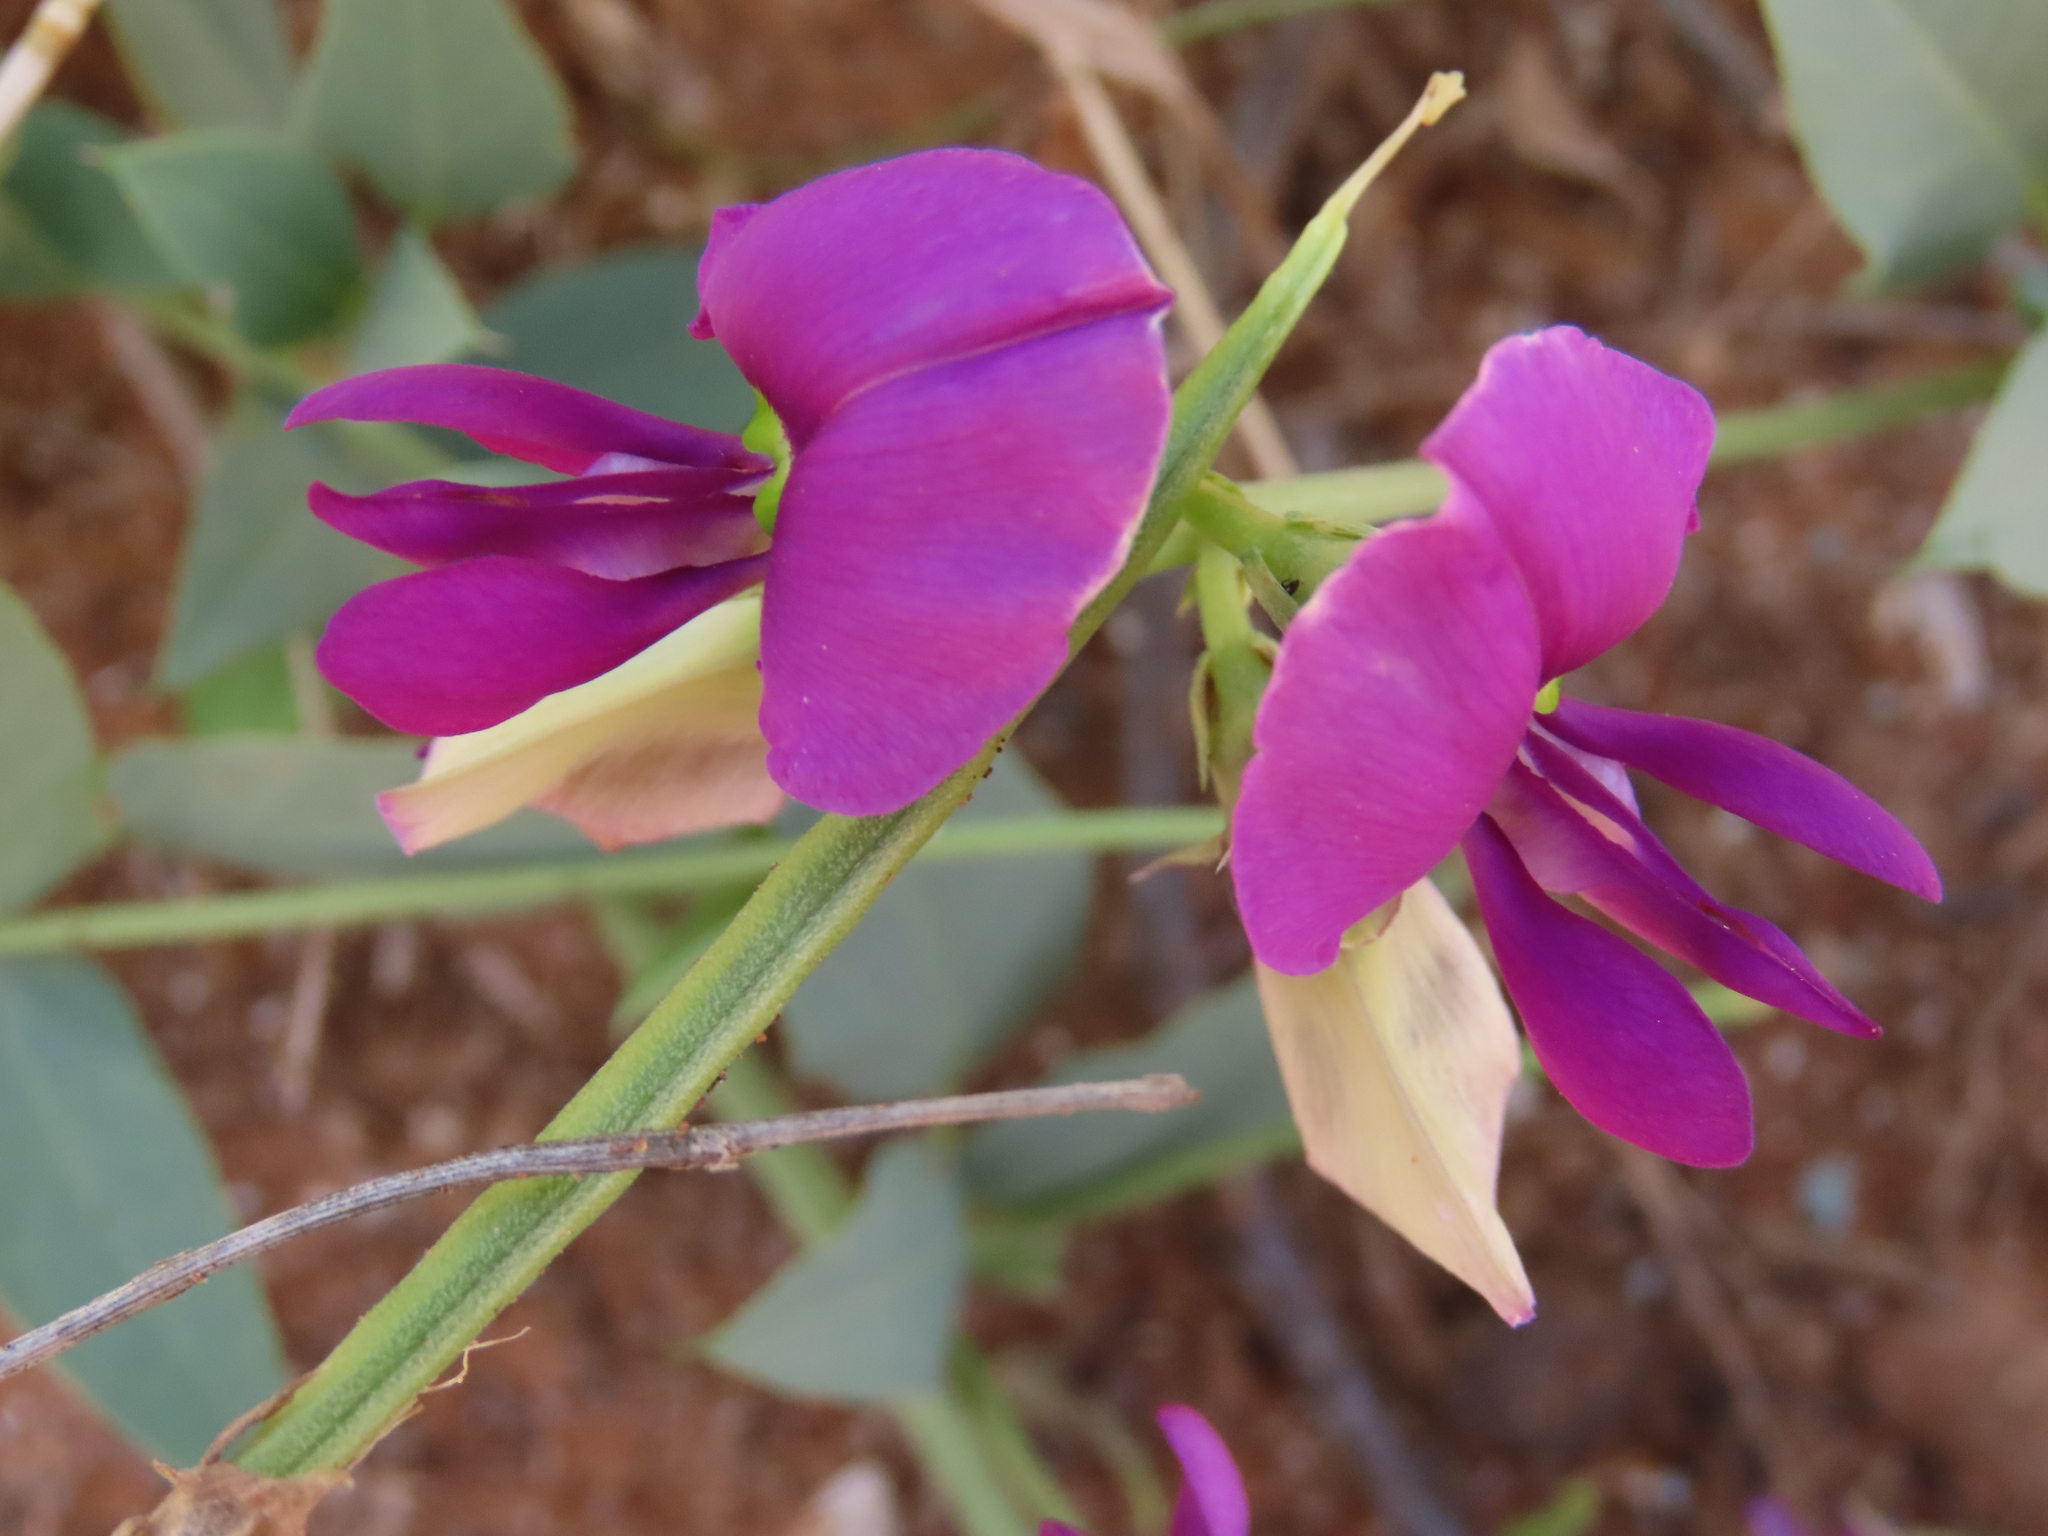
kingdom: Plantae
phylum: Tracheophyta
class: Magnoliopsida
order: Fabales
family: Fabaceae
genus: Otoptera
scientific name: Otoptera burchellii
